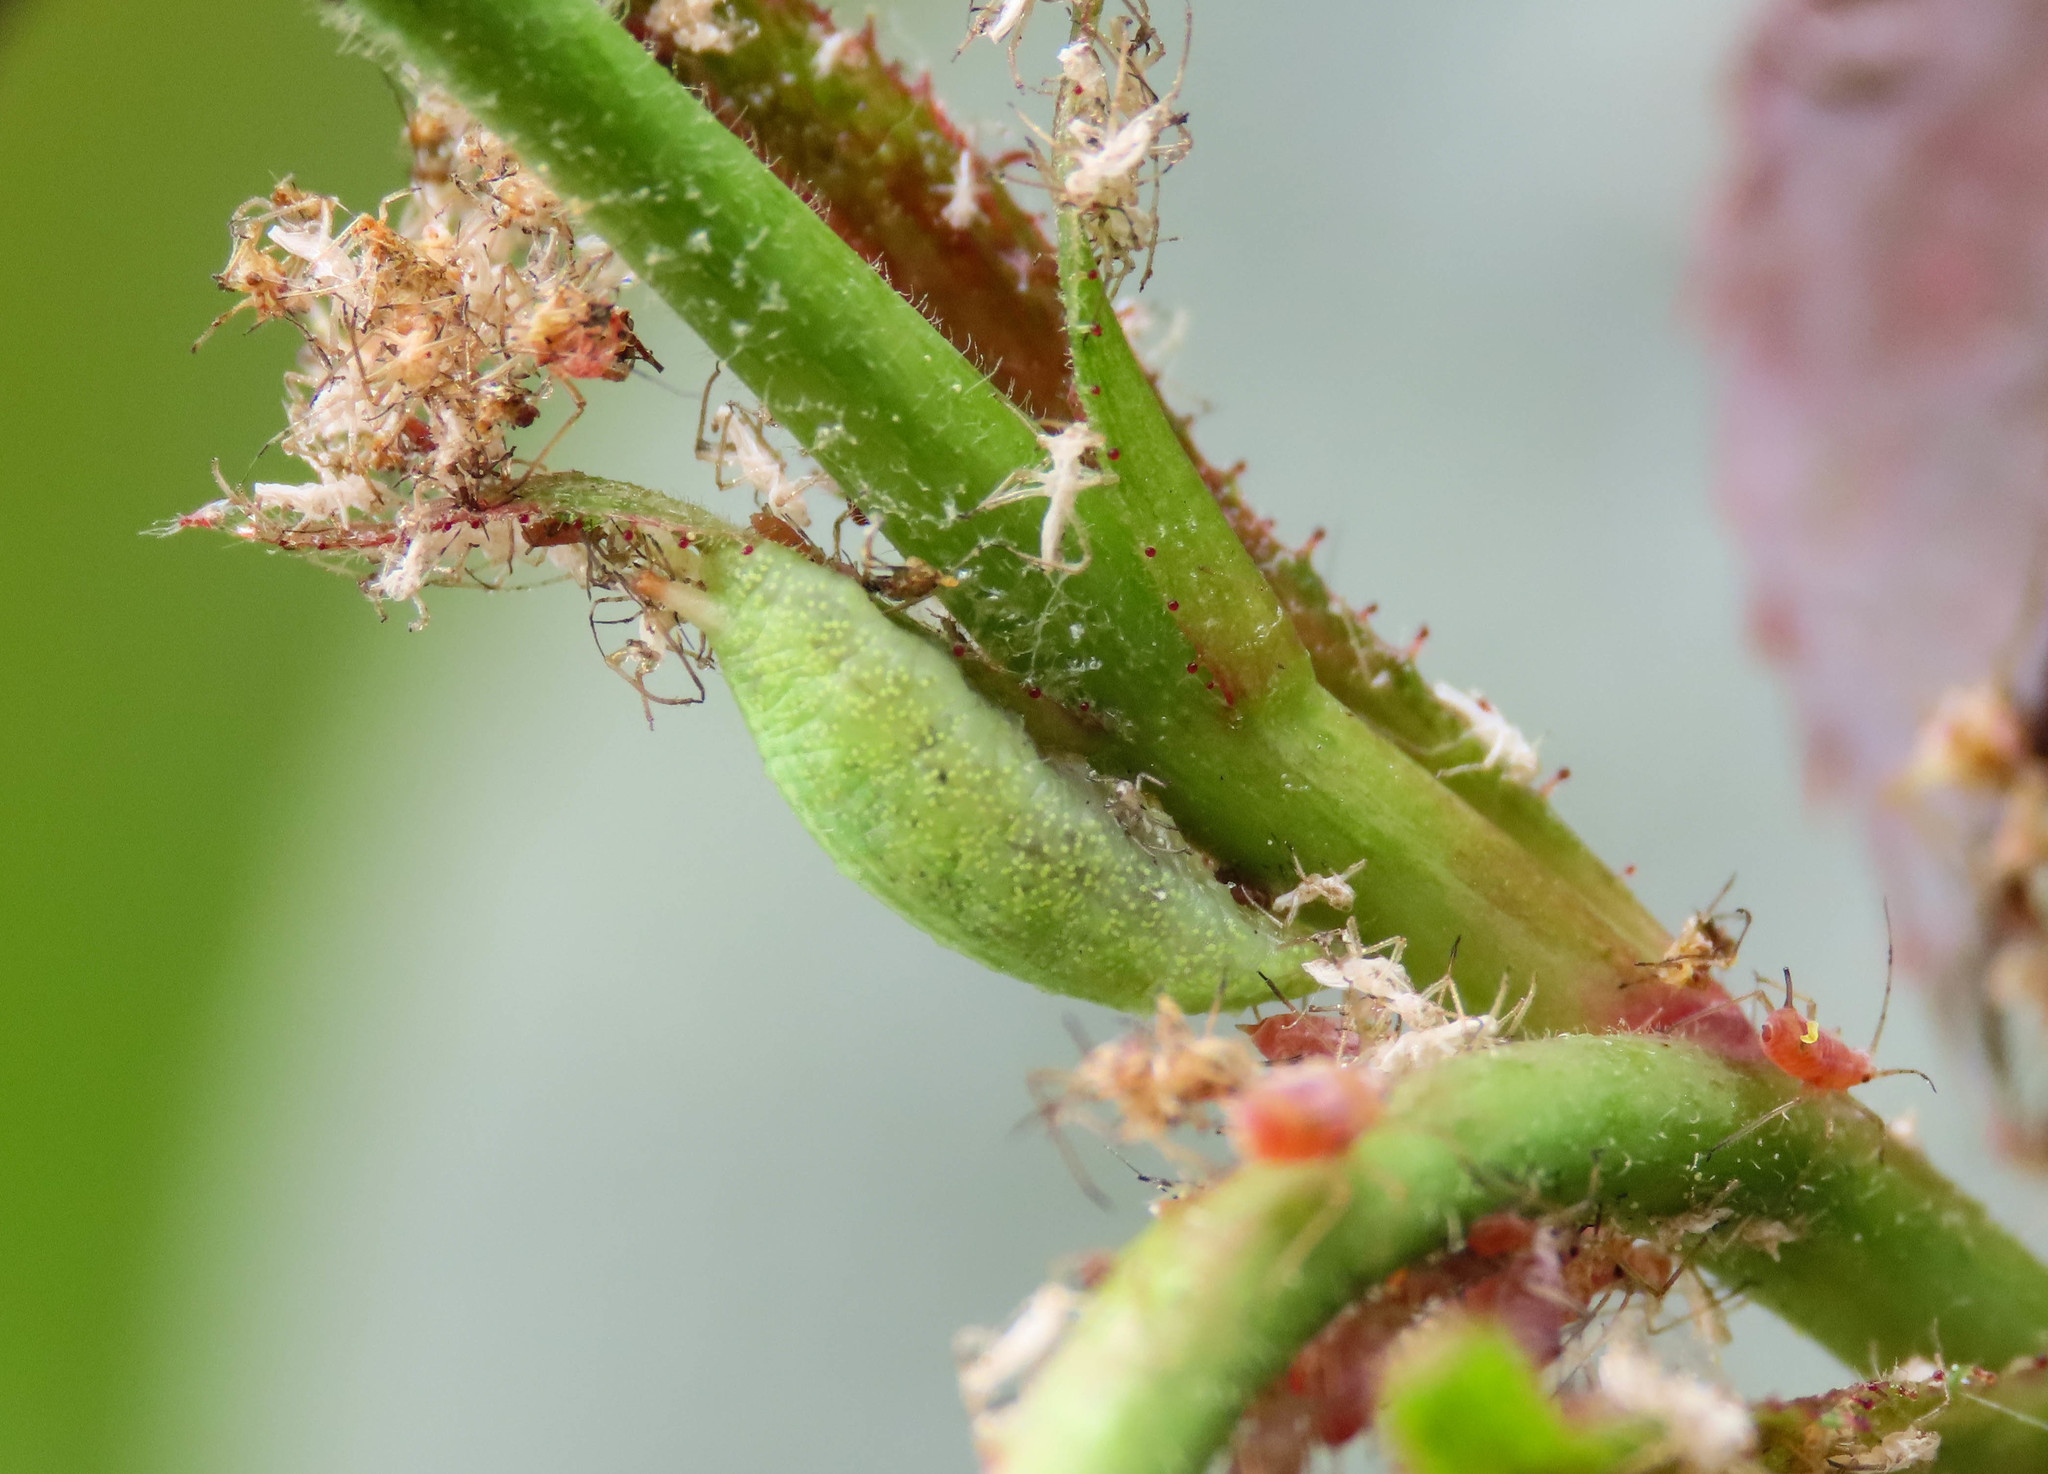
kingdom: Animalia
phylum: Arthropoda
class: Insecta
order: Diptera
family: Syrphidae
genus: Epistrophe
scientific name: Epistrophe
